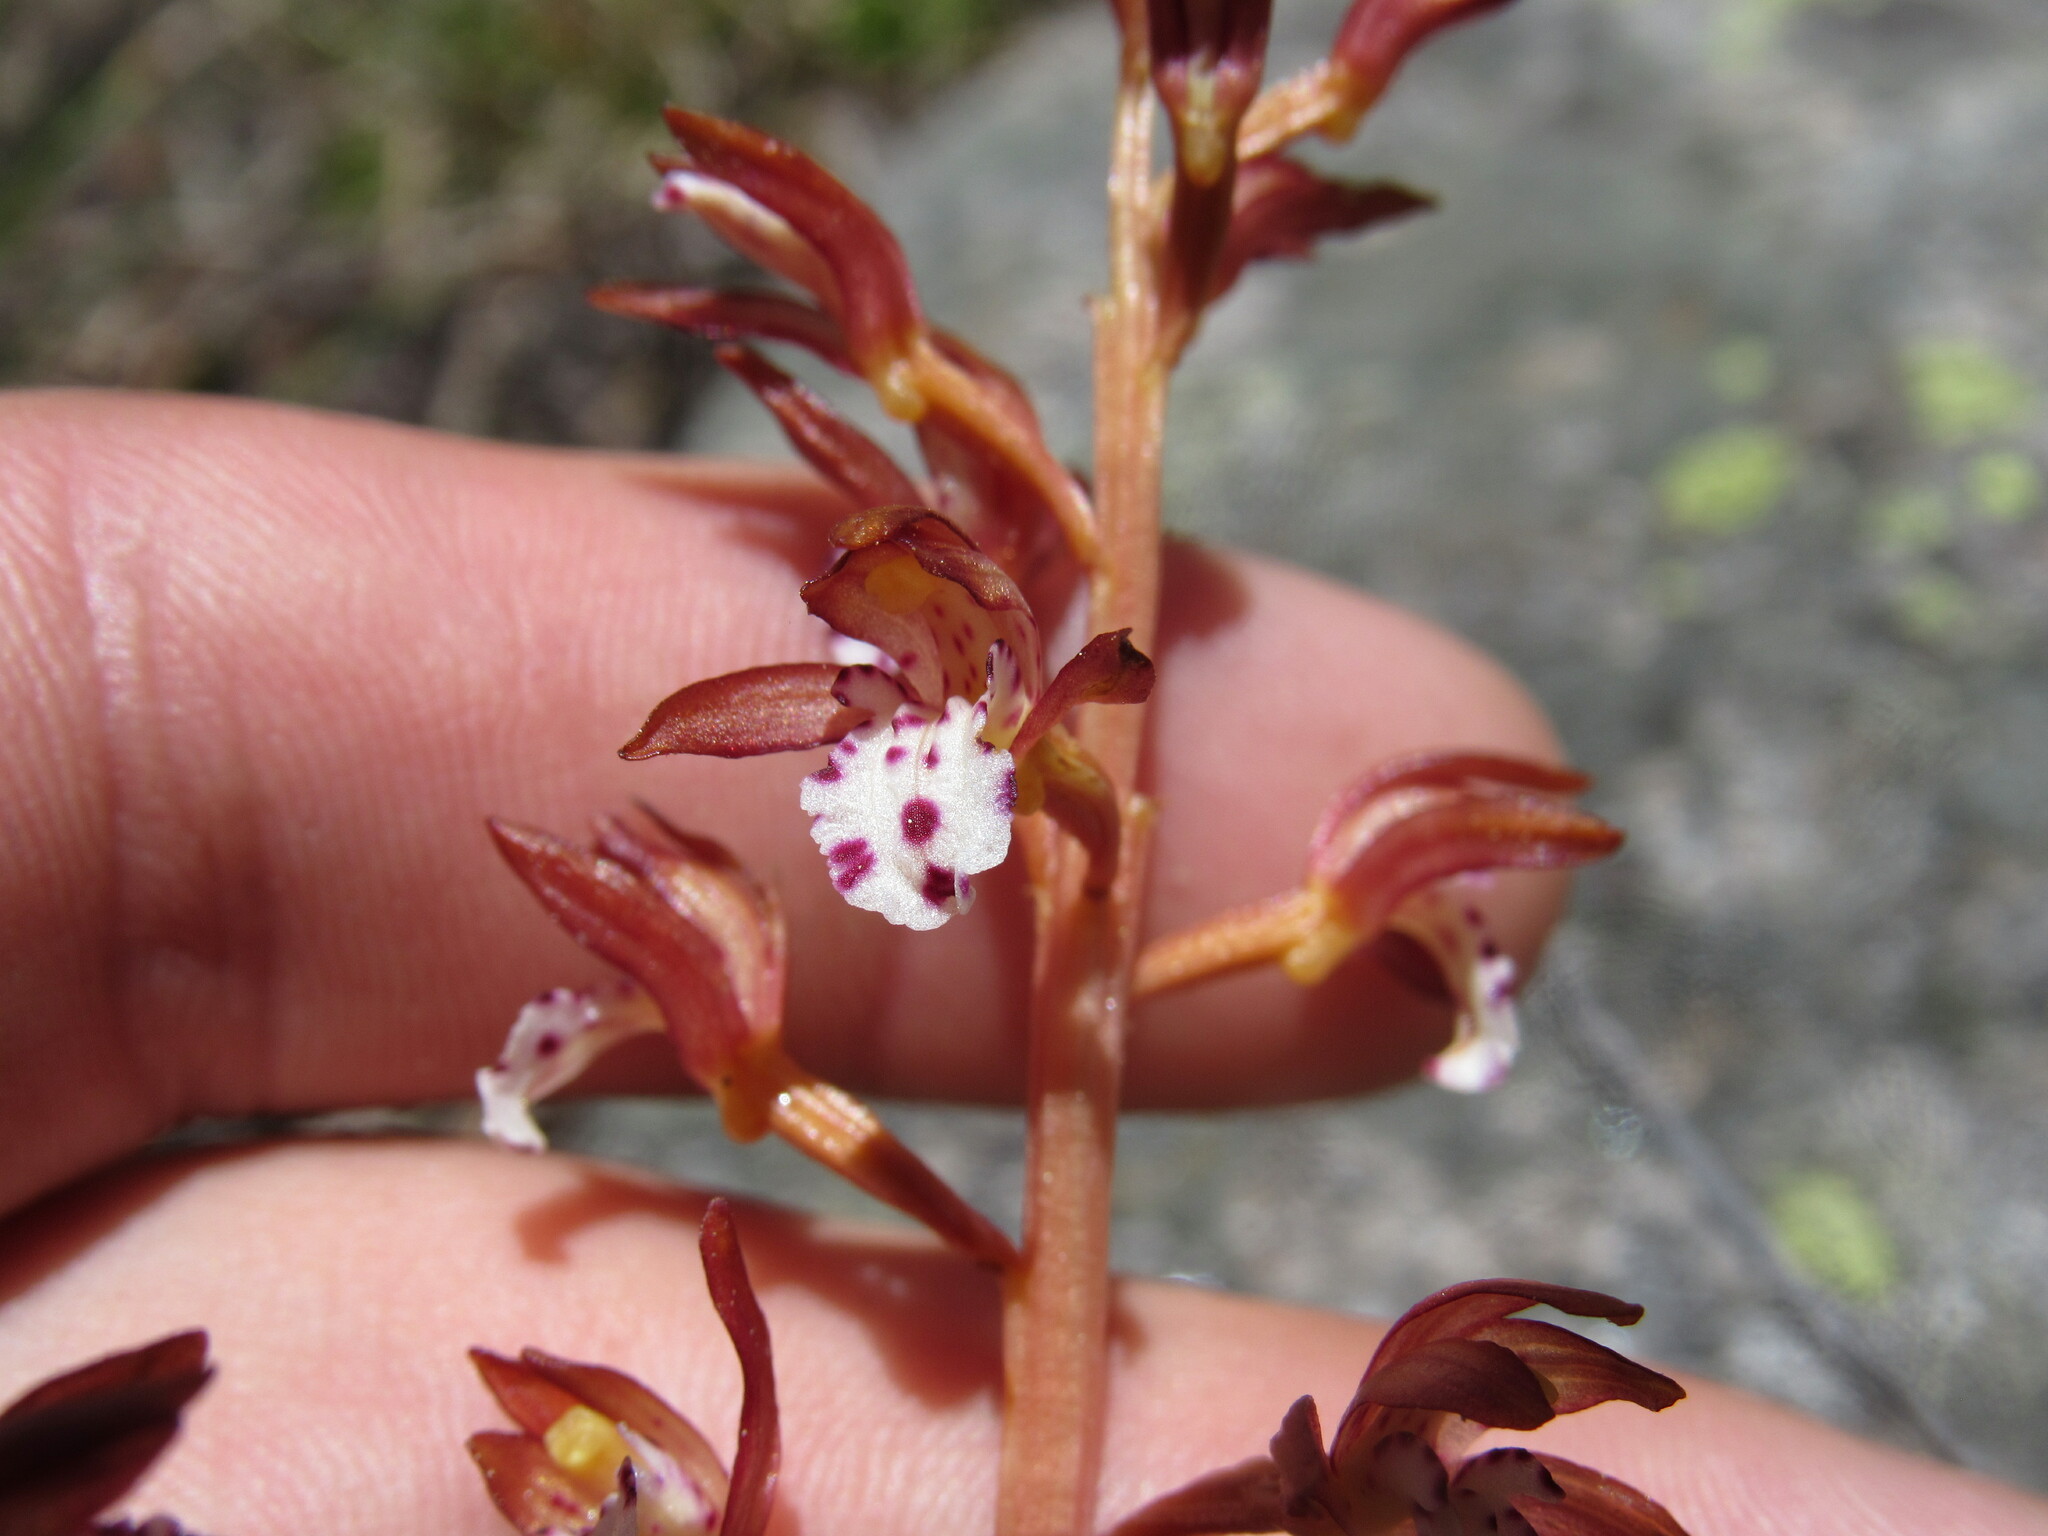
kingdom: Plantae
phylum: Tracheophyta
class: Liliopsida
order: Asparagales
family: Orchidaceae
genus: Corallorhiza
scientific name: Corallorhiza maculata
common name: Spotted coralroot
